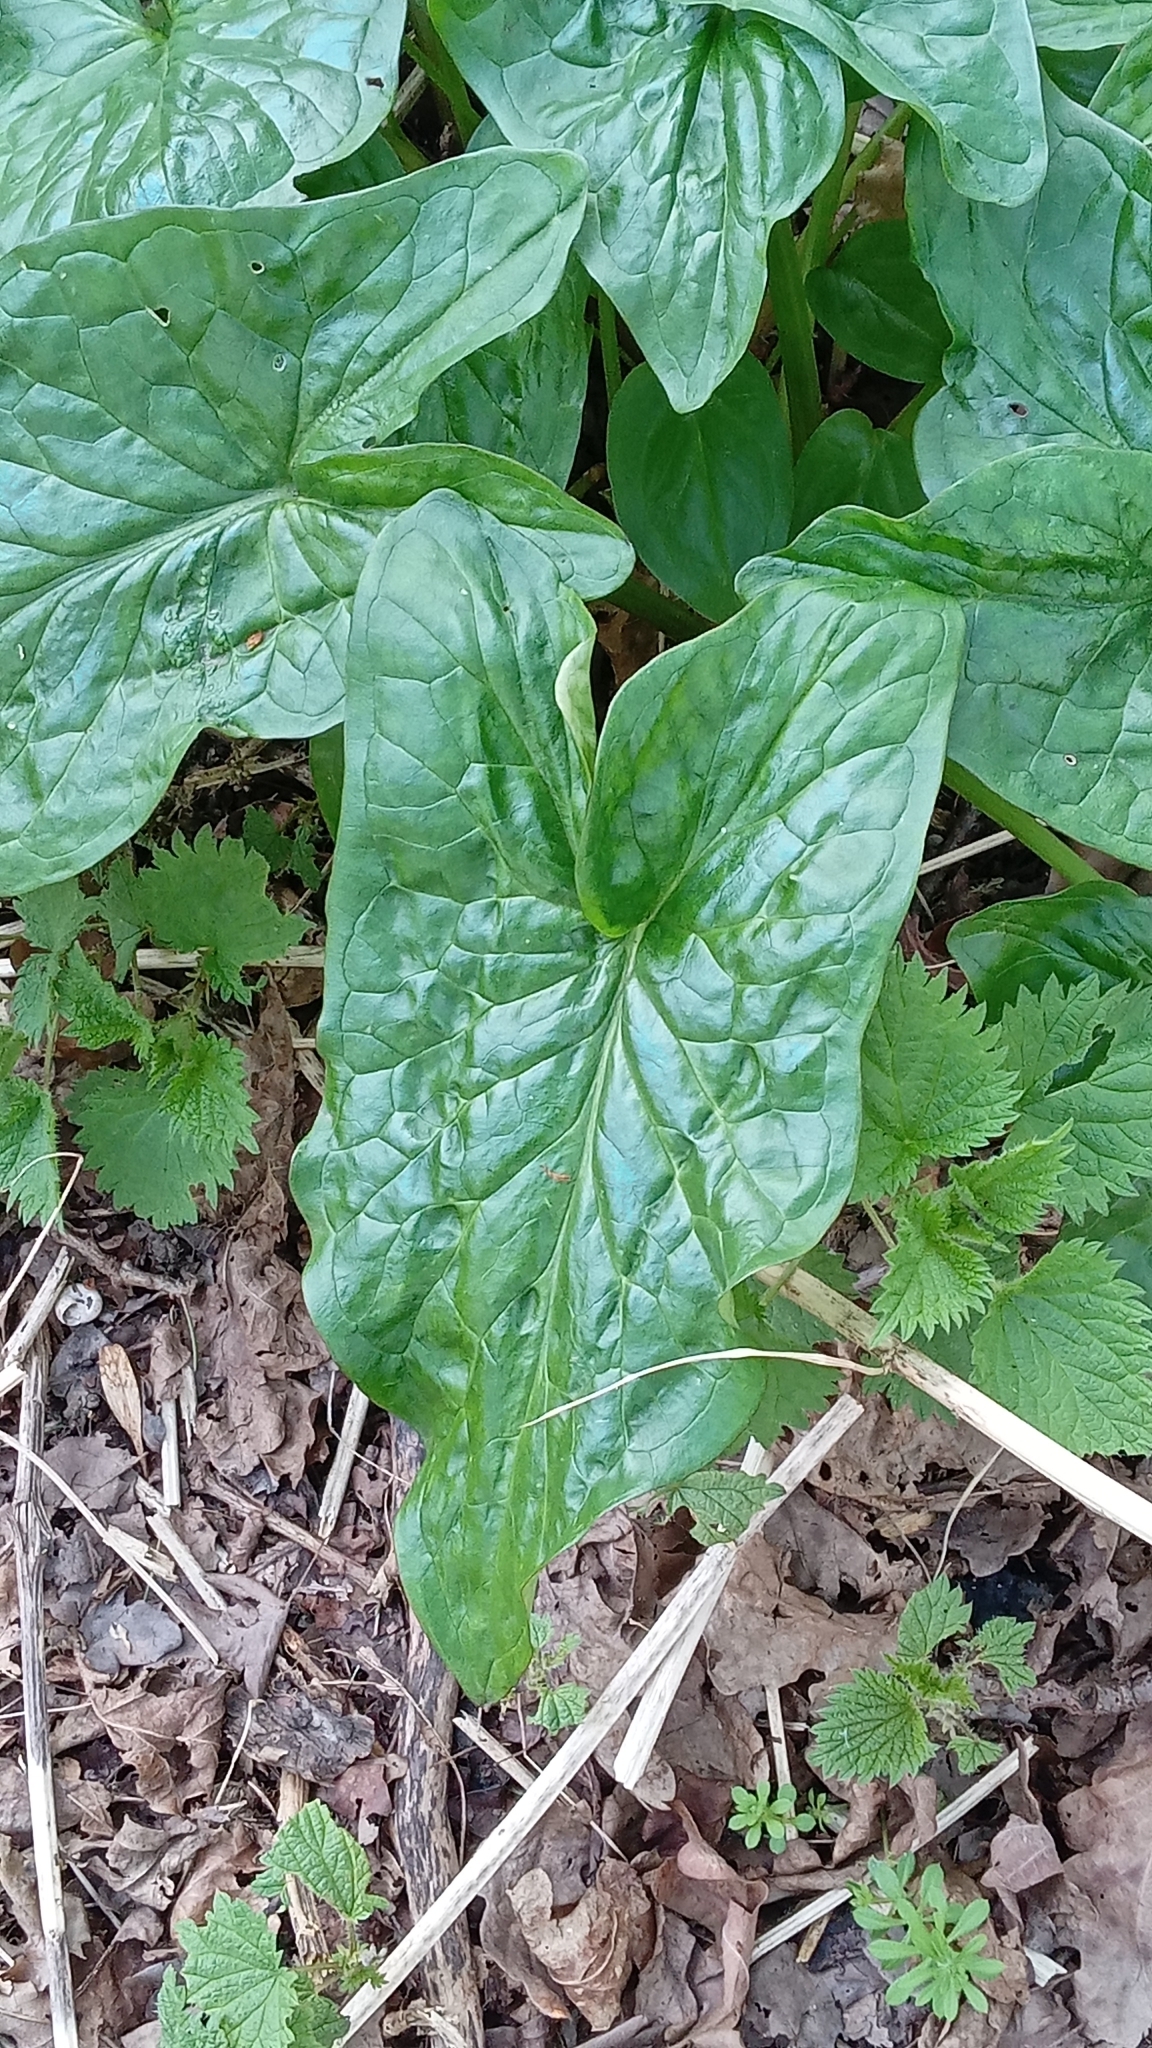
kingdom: Plantae
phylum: Tracheophyta
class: Liliopsida
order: Alismatales
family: Araceae
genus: Arum
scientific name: Arum maculatum
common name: Lords-and-ladies
